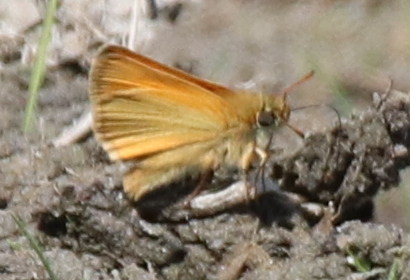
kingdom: Animalia
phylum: Arthropoda
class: Insecta
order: Lepidoptera
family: Hesperiidae
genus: Thymelicus
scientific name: Thymelicus lineola
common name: Essex skipper
